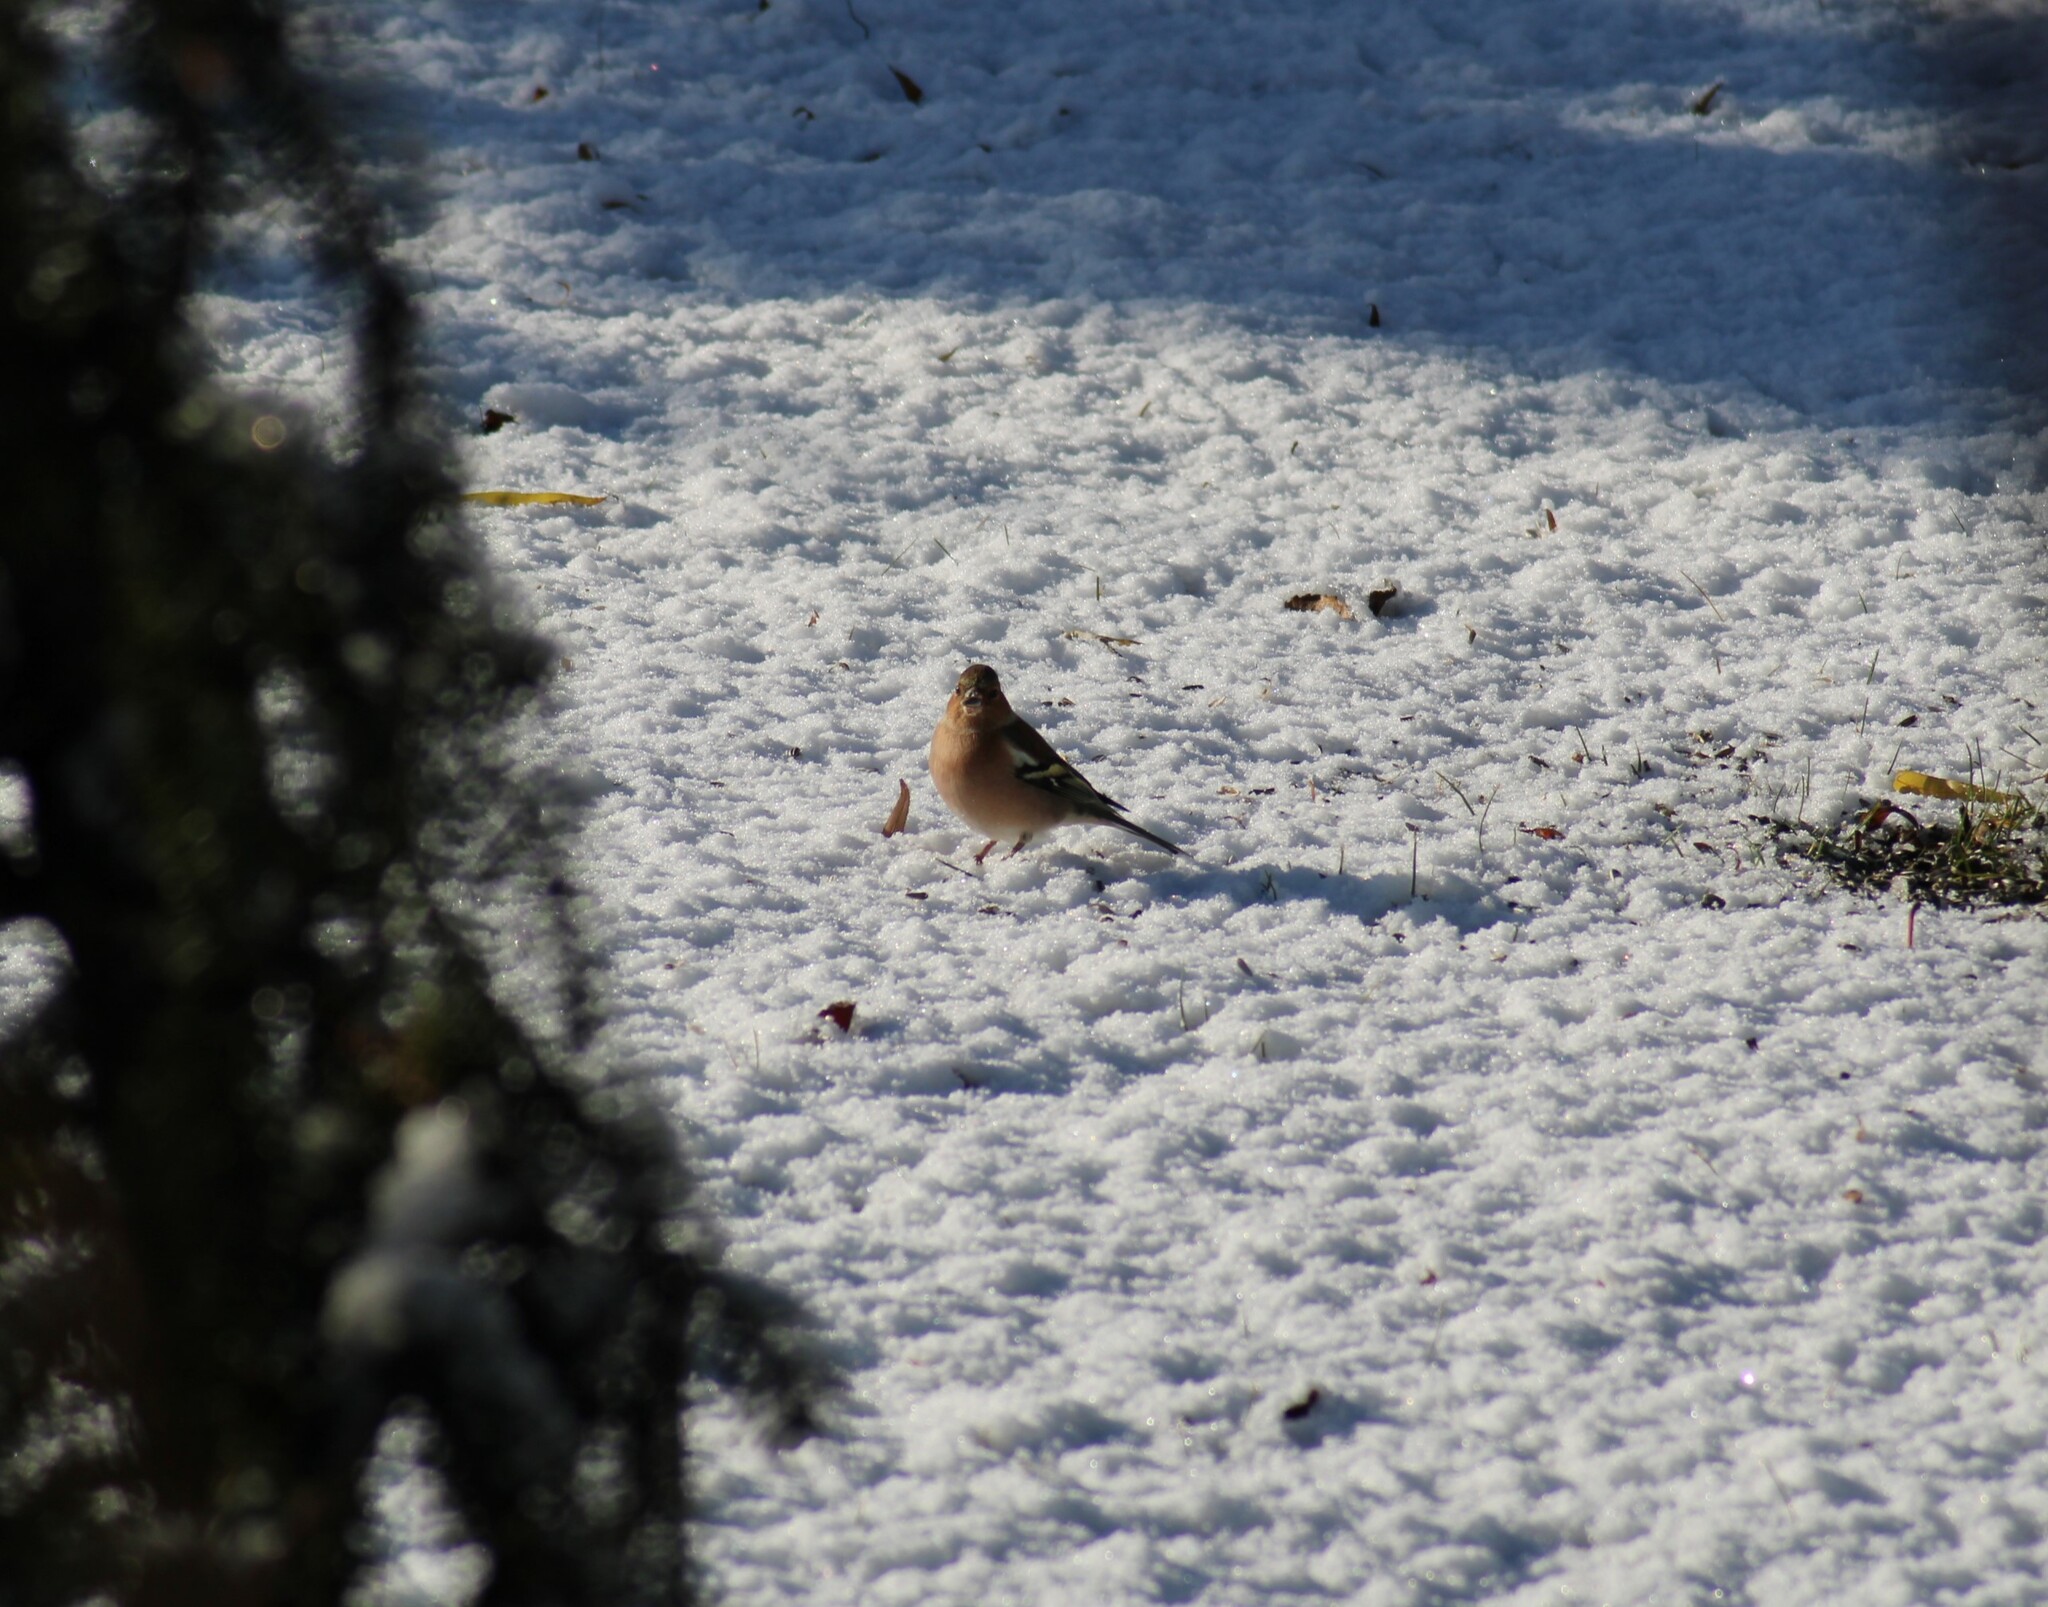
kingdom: Animalia
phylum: Chordata
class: Aves
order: Passeriformes
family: Fringillidae
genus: Fringilla
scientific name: Fringilla coelebs
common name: Common chaffinch
